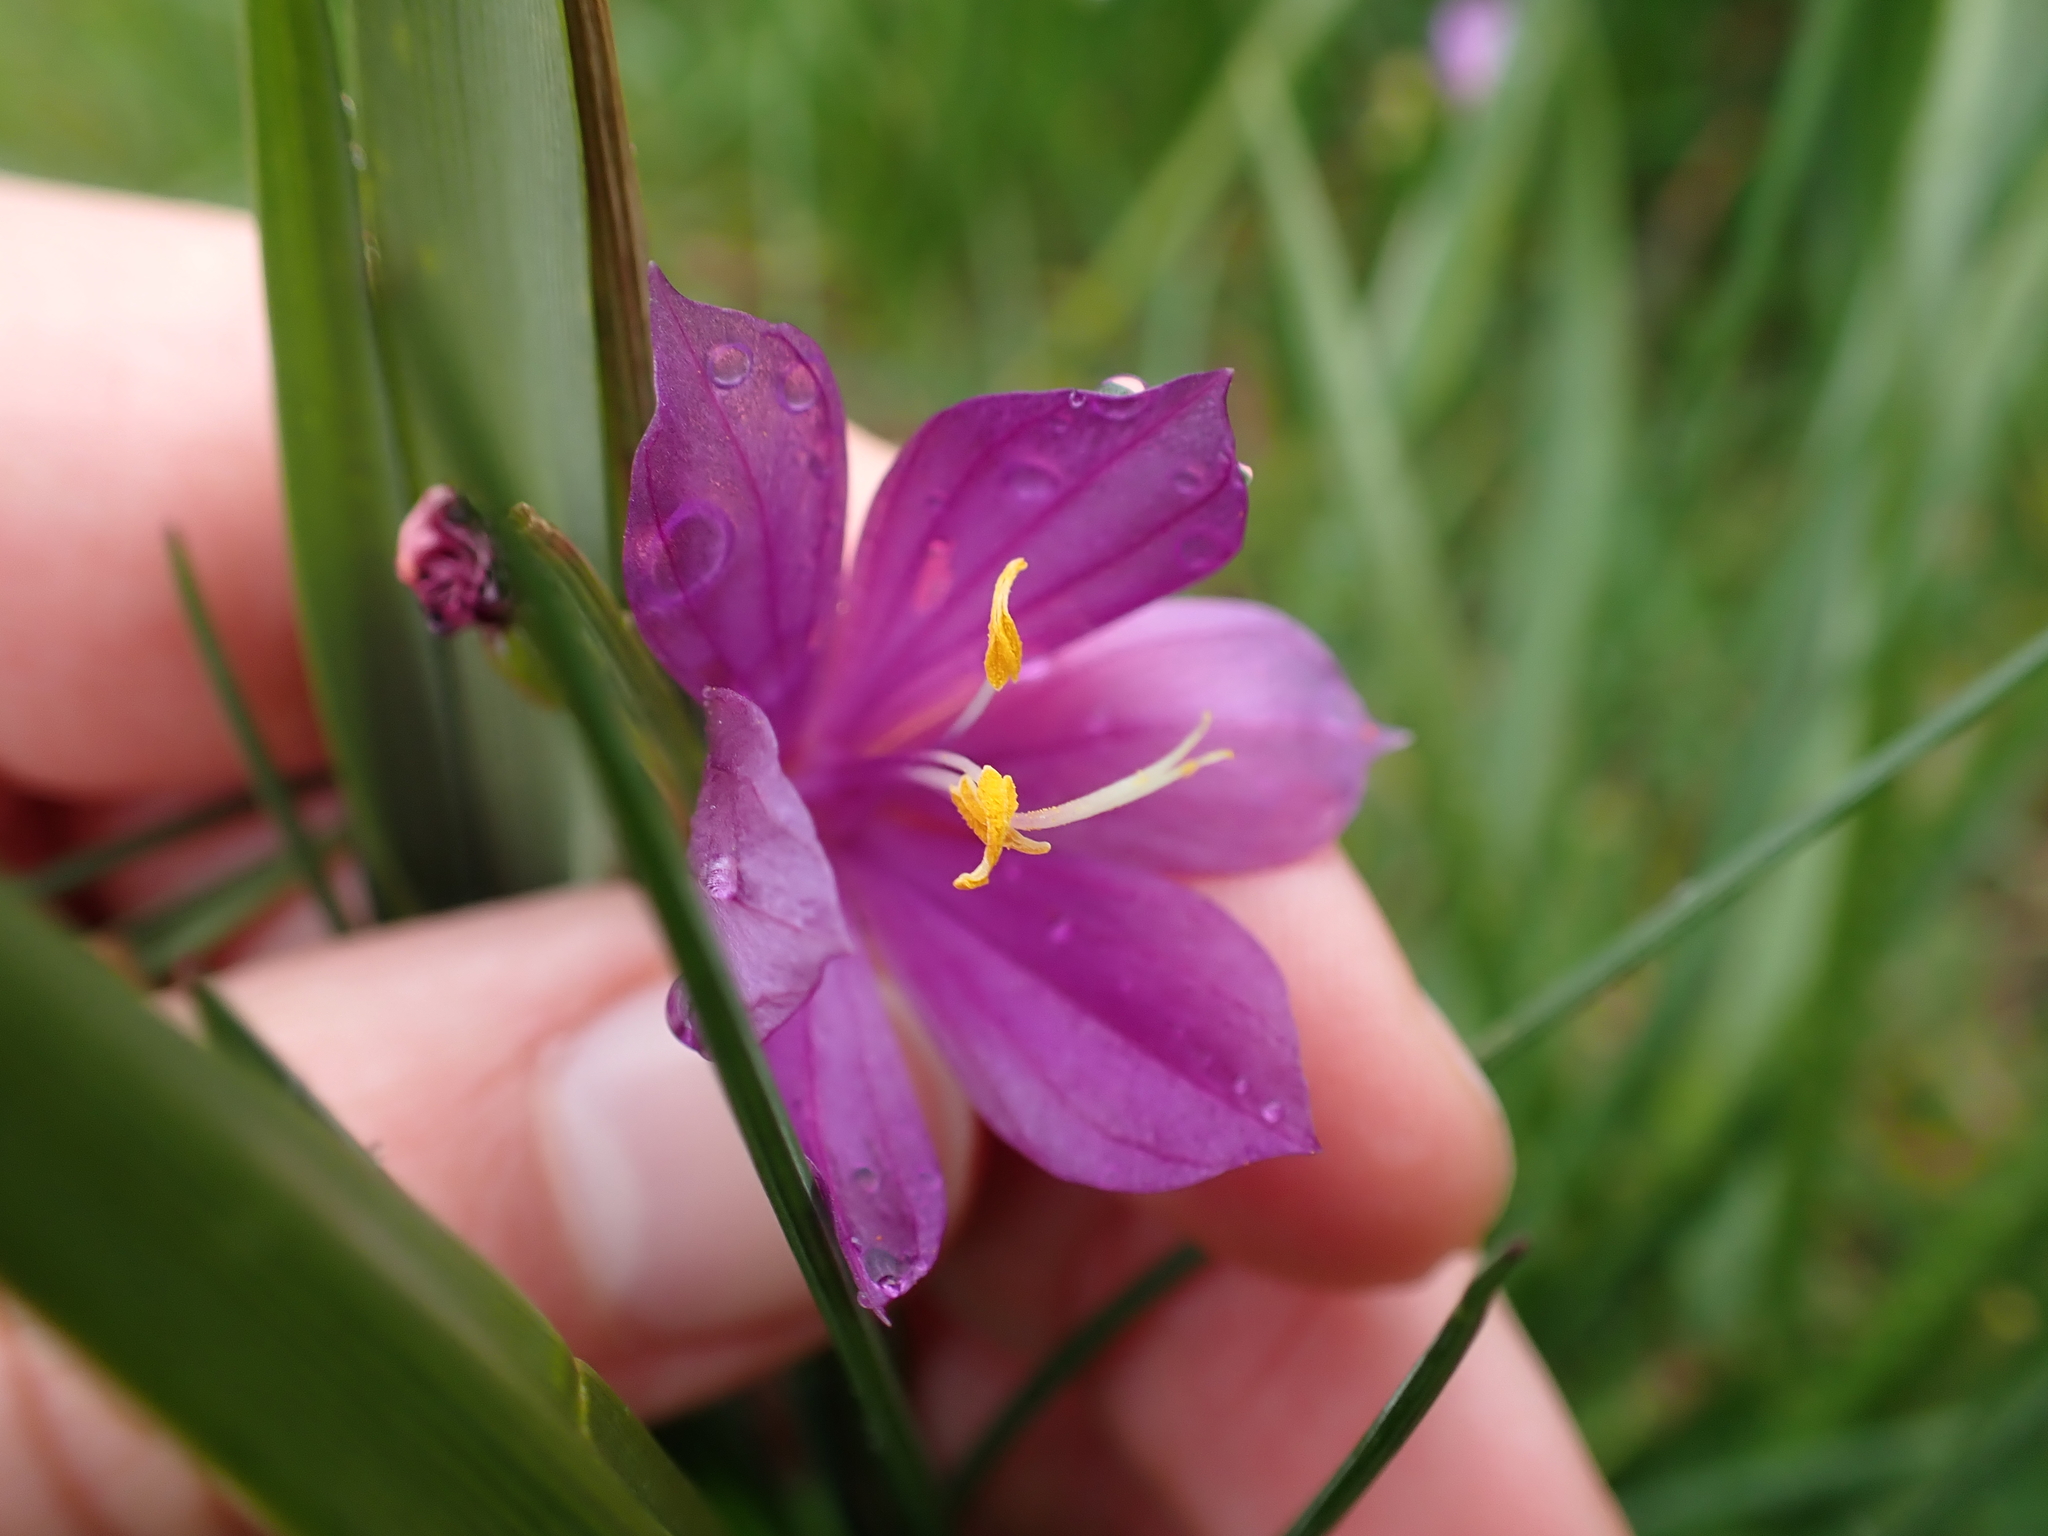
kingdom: Plantae
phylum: Tracheophyta
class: Liliopsida
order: Asparagales
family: Iridaceae
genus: Olsynium
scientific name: Olsynium douglasii
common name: Douglas' grasswidow
